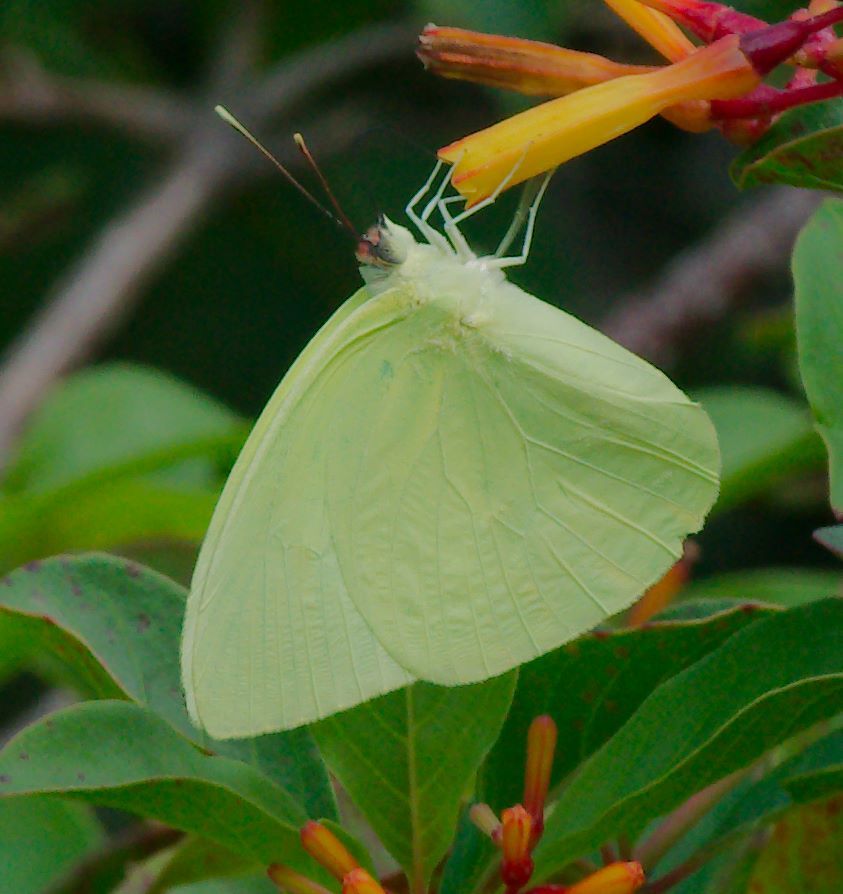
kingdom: Animalia
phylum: Arthropoda
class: Insecta
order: Lepidoptera
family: Pieridae
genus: Aphrissa
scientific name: Aphrissa statira
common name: Statira sulphur
